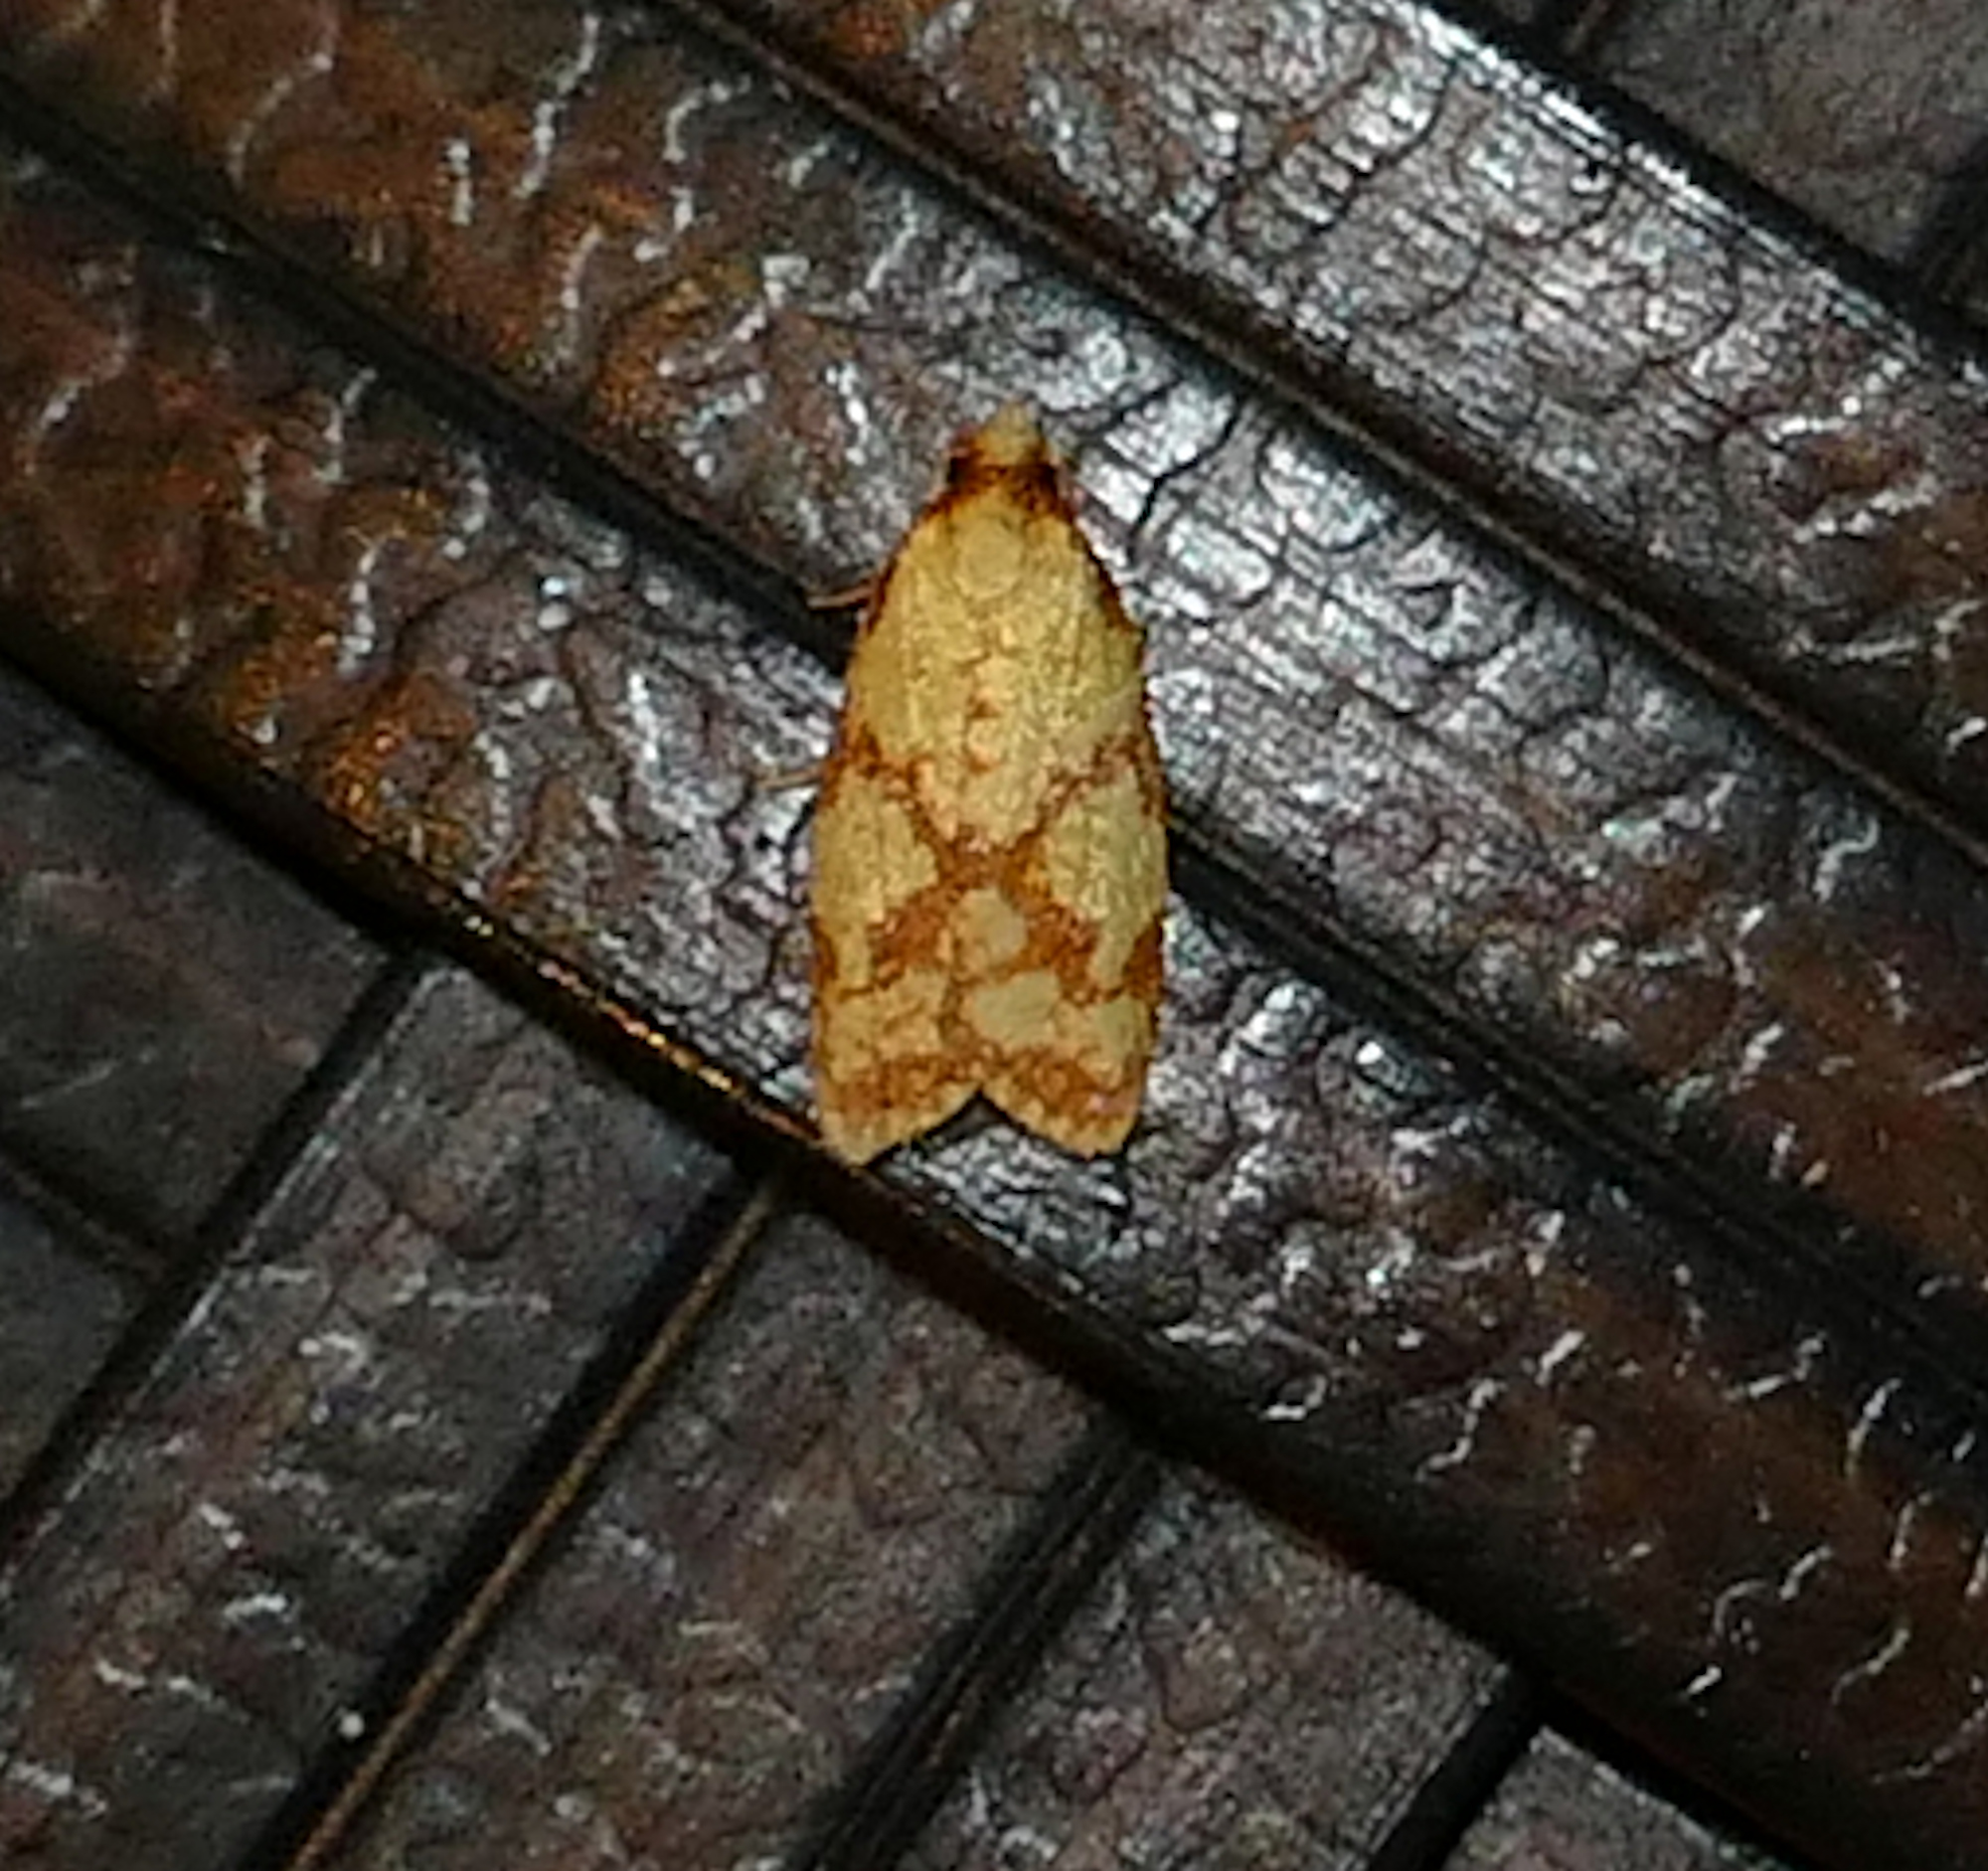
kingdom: Animalia
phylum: Arthropoda
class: Insecta
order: Lepidoptera
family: Tortricidae
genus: Sparganothis
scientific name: Sparganothis sulfureana
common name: Sparganothis fruitworm moth
